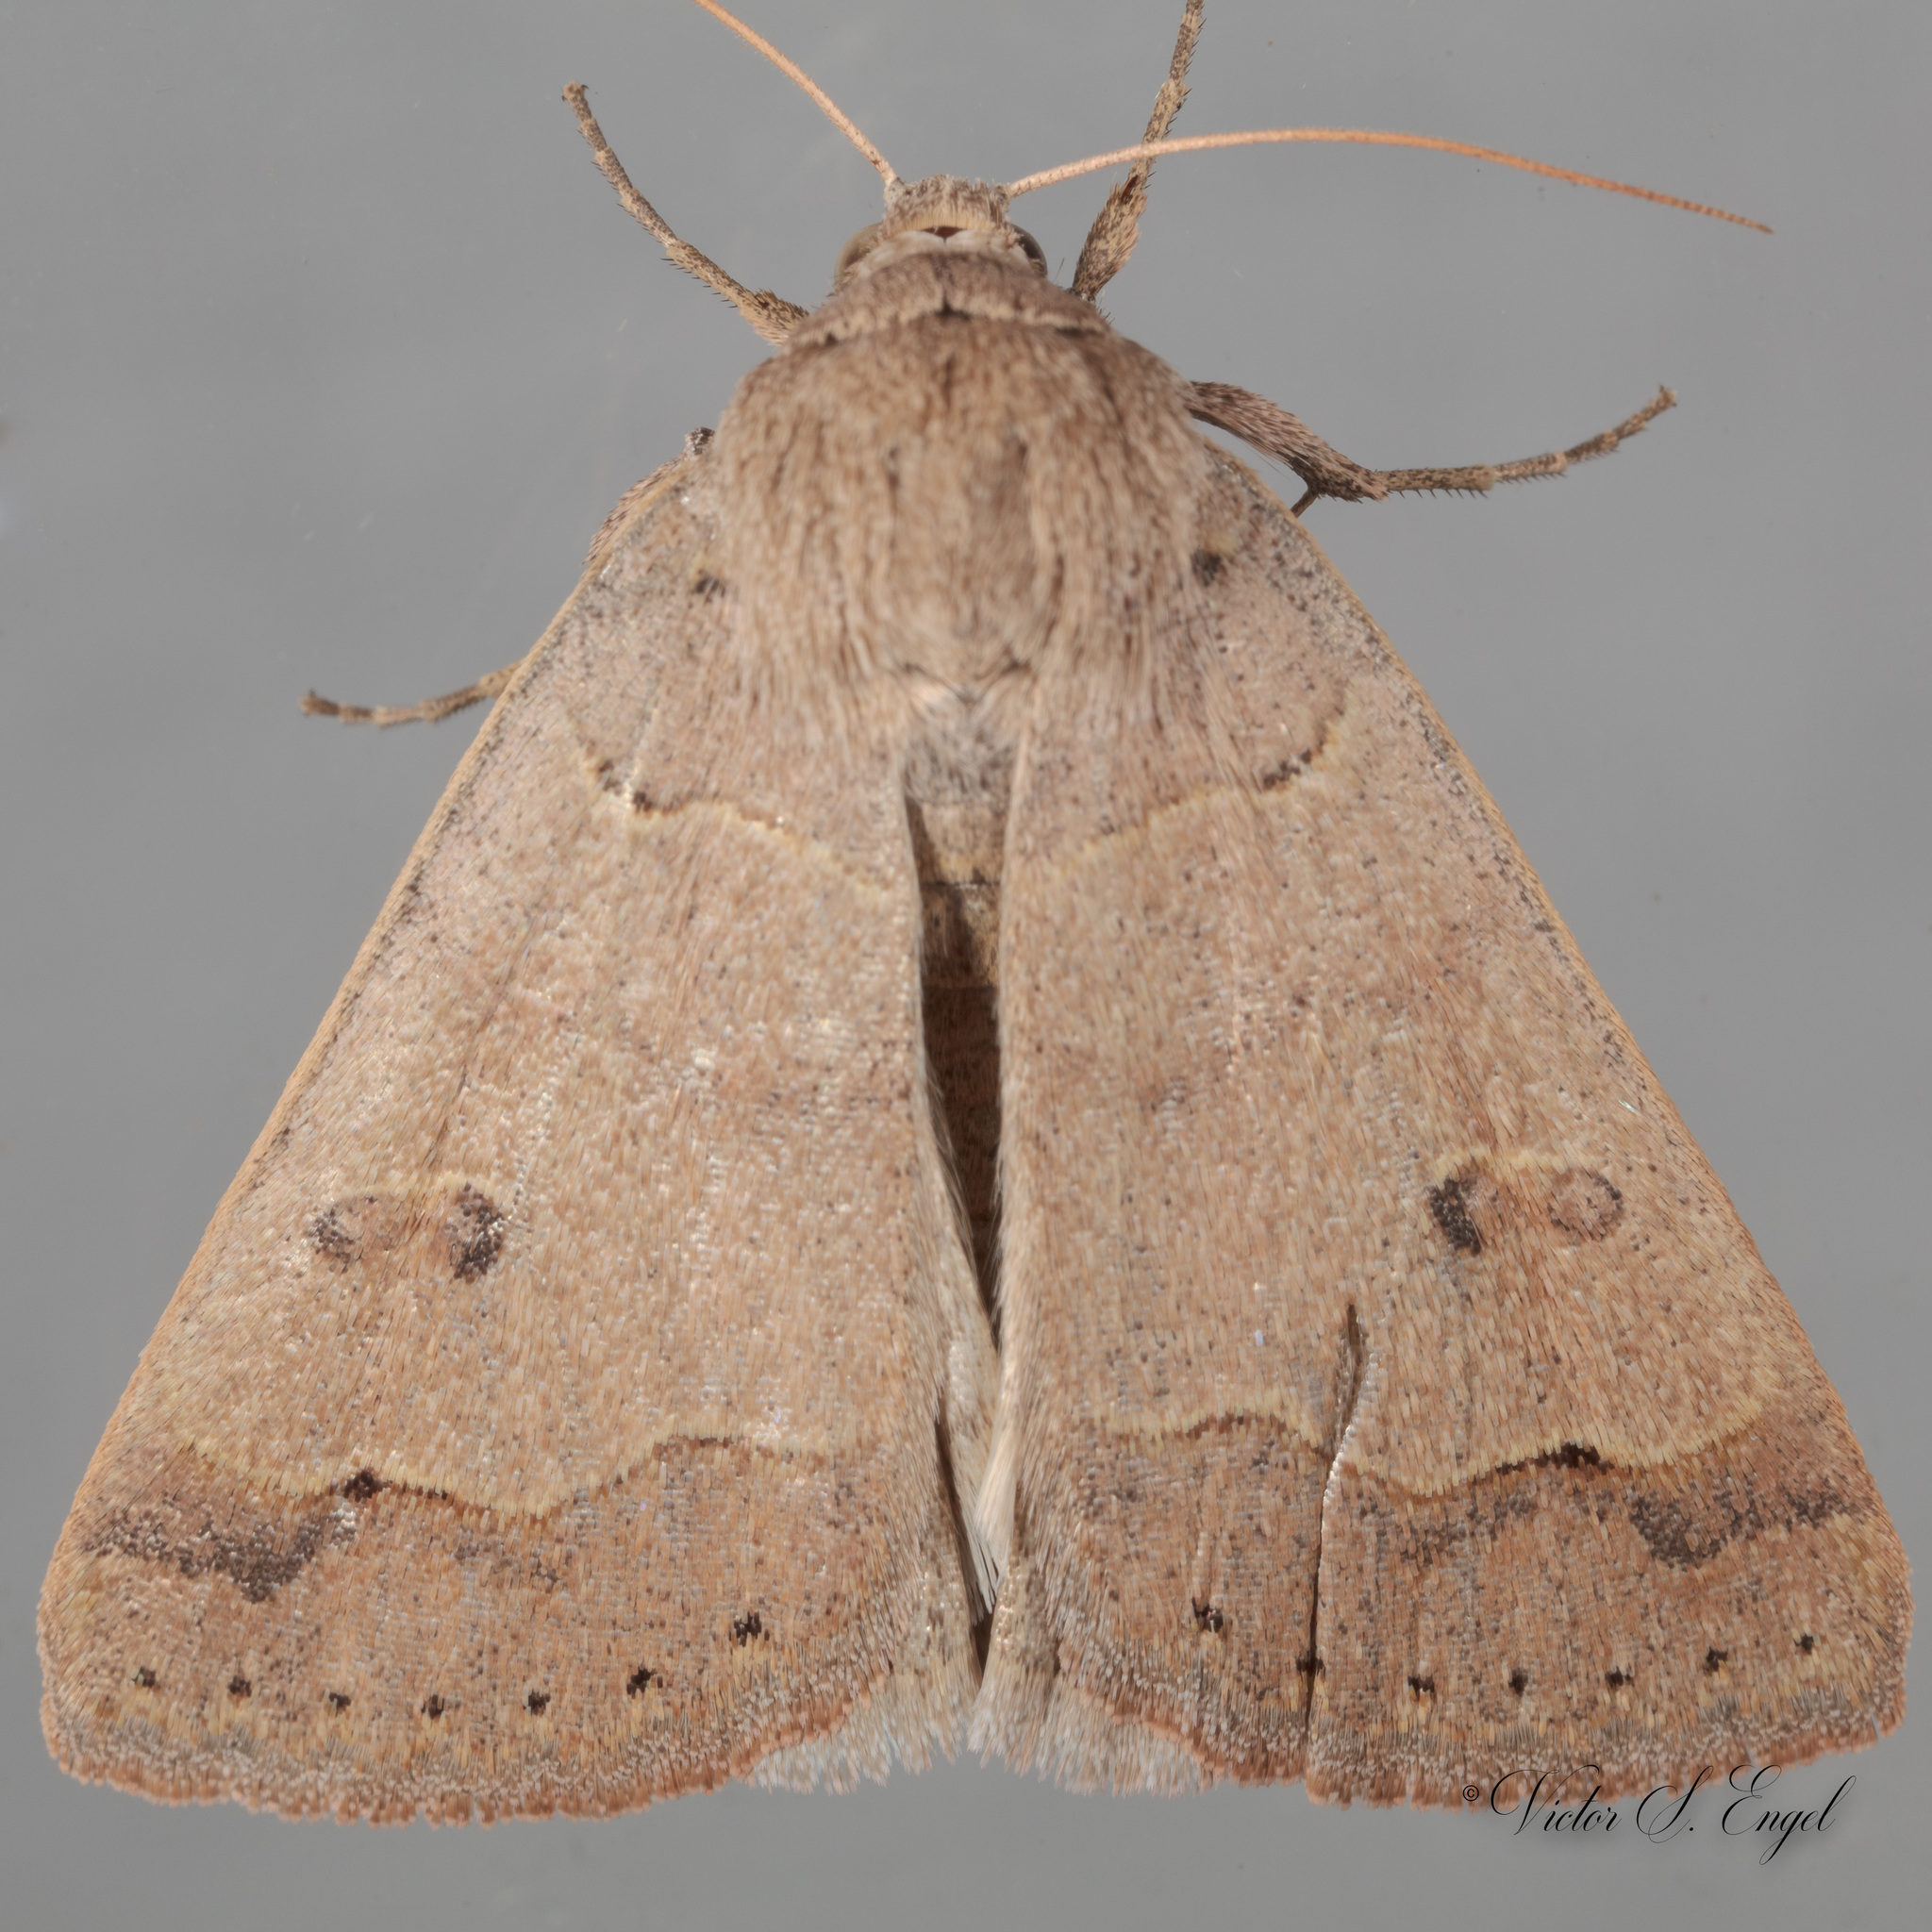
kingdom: Animalia
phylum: Arthropoda
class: Insecta
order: Lepidoptera
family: Erebidae
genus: Phoberia
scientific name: Phoberia atomaris
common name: Common oak moth
